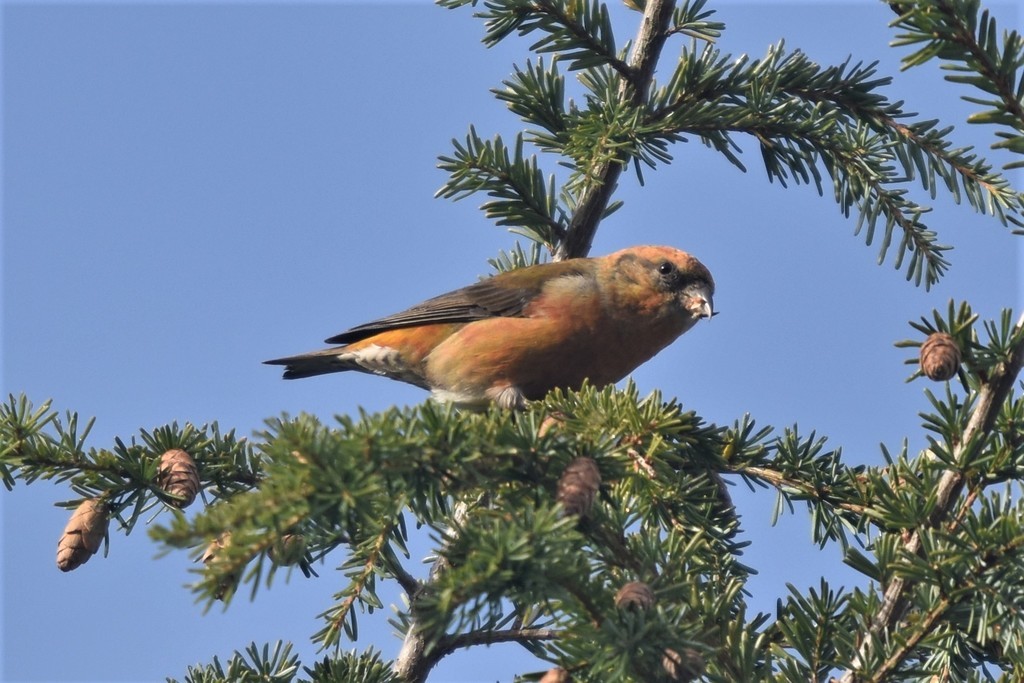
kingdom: Animalia
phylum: Chordata
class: Aves
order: Passeriformes
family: Fringillidae
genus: Loxia
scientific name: Loxia curvirostra
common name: Red crossbill
